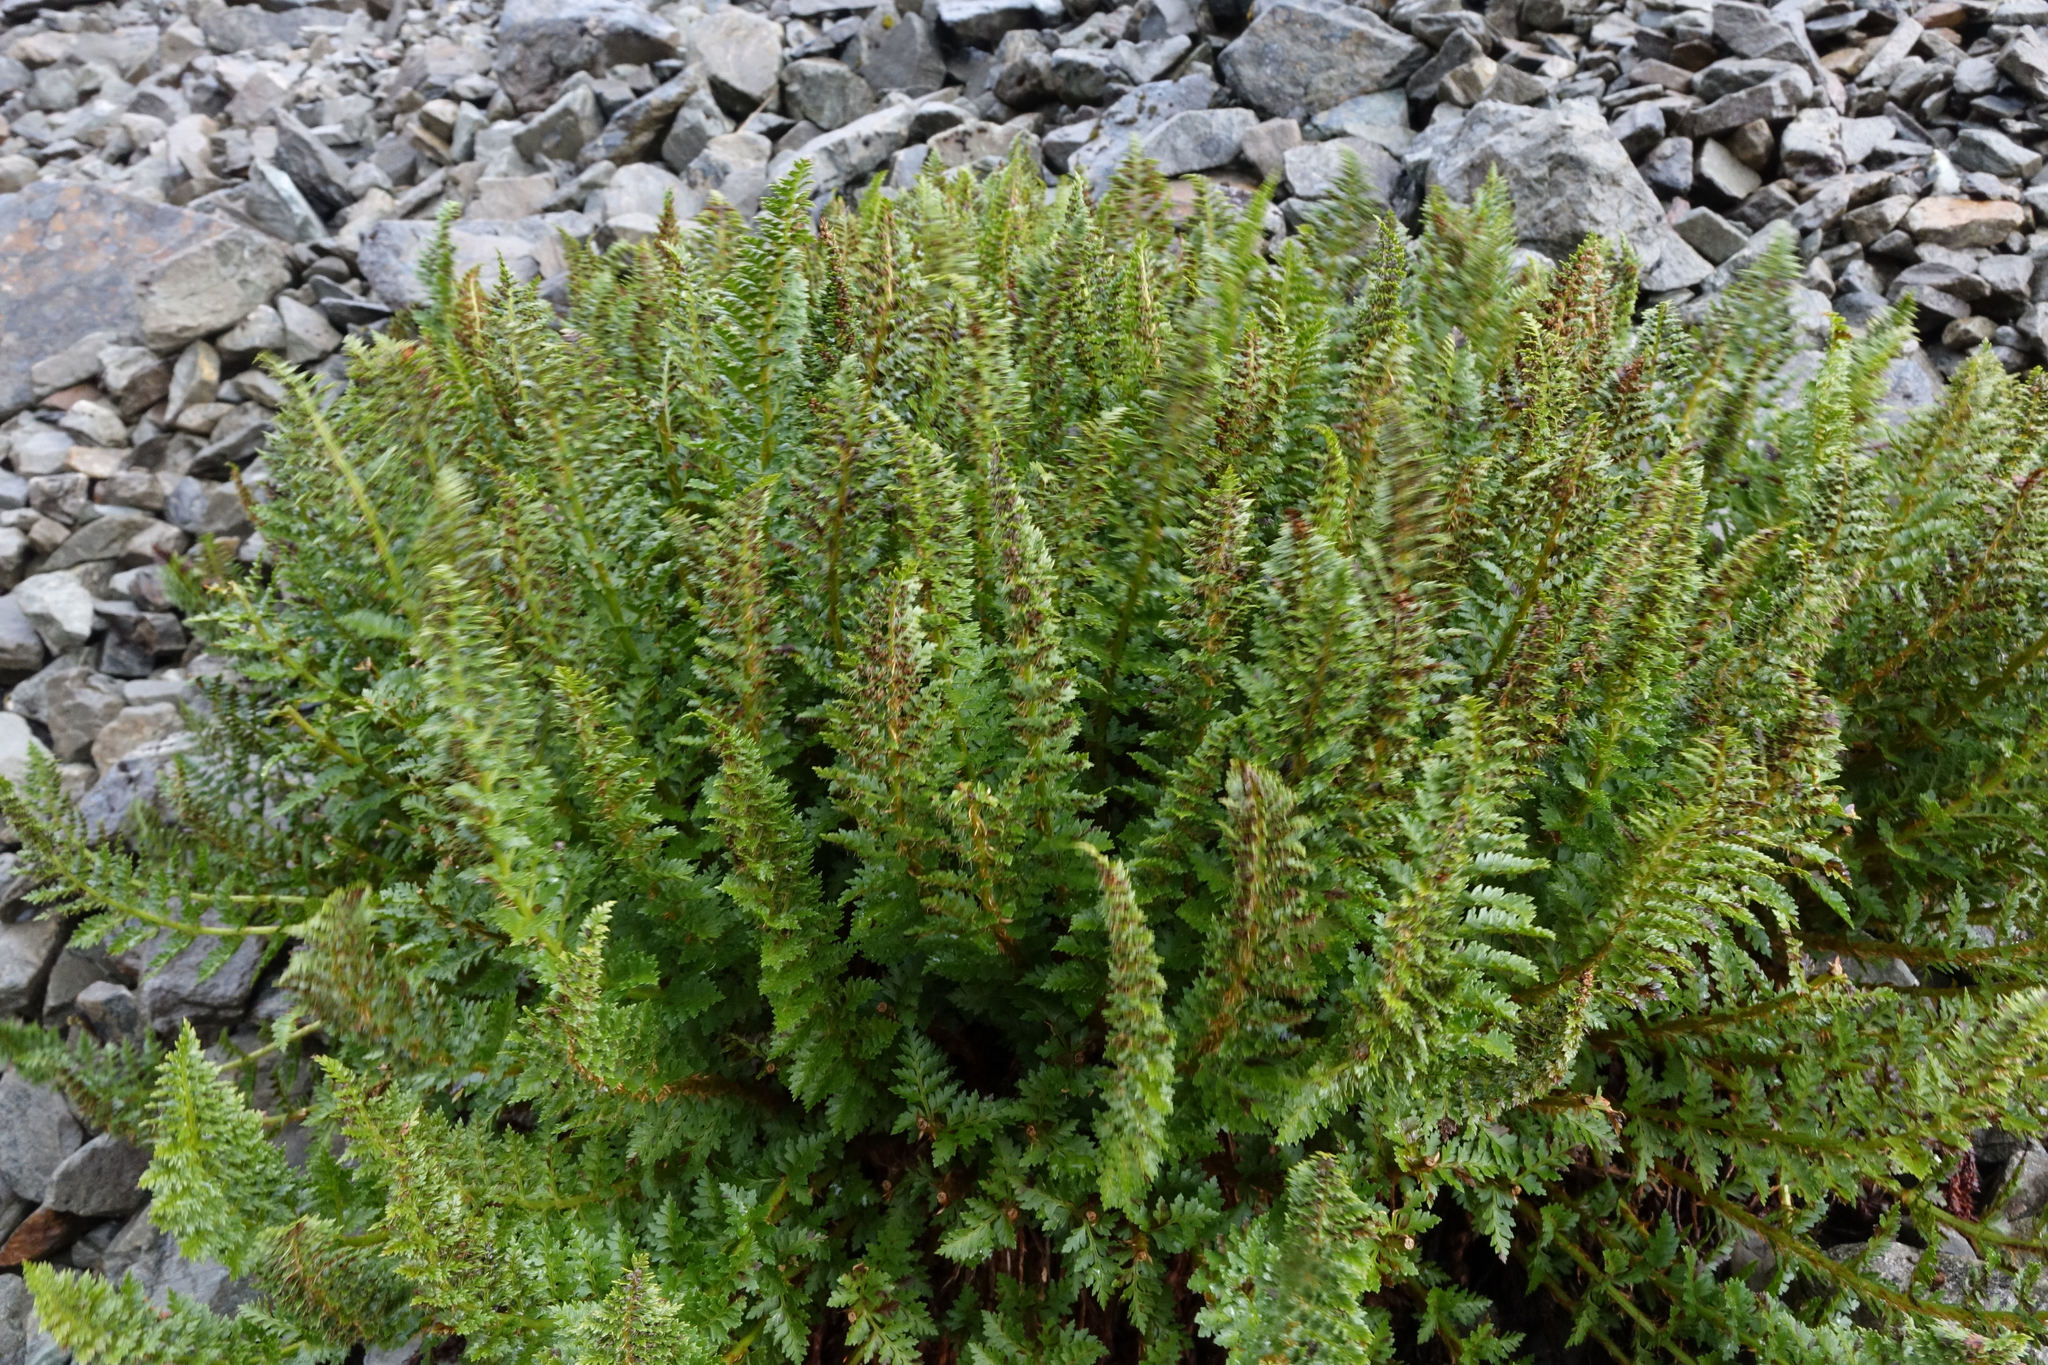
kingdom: Plantae
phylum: Tracheophyta
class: Polypodiopsida
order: Polypodiales
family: Dryopteridaceae
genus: Polystichum
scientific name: Polystichum cystostegia
